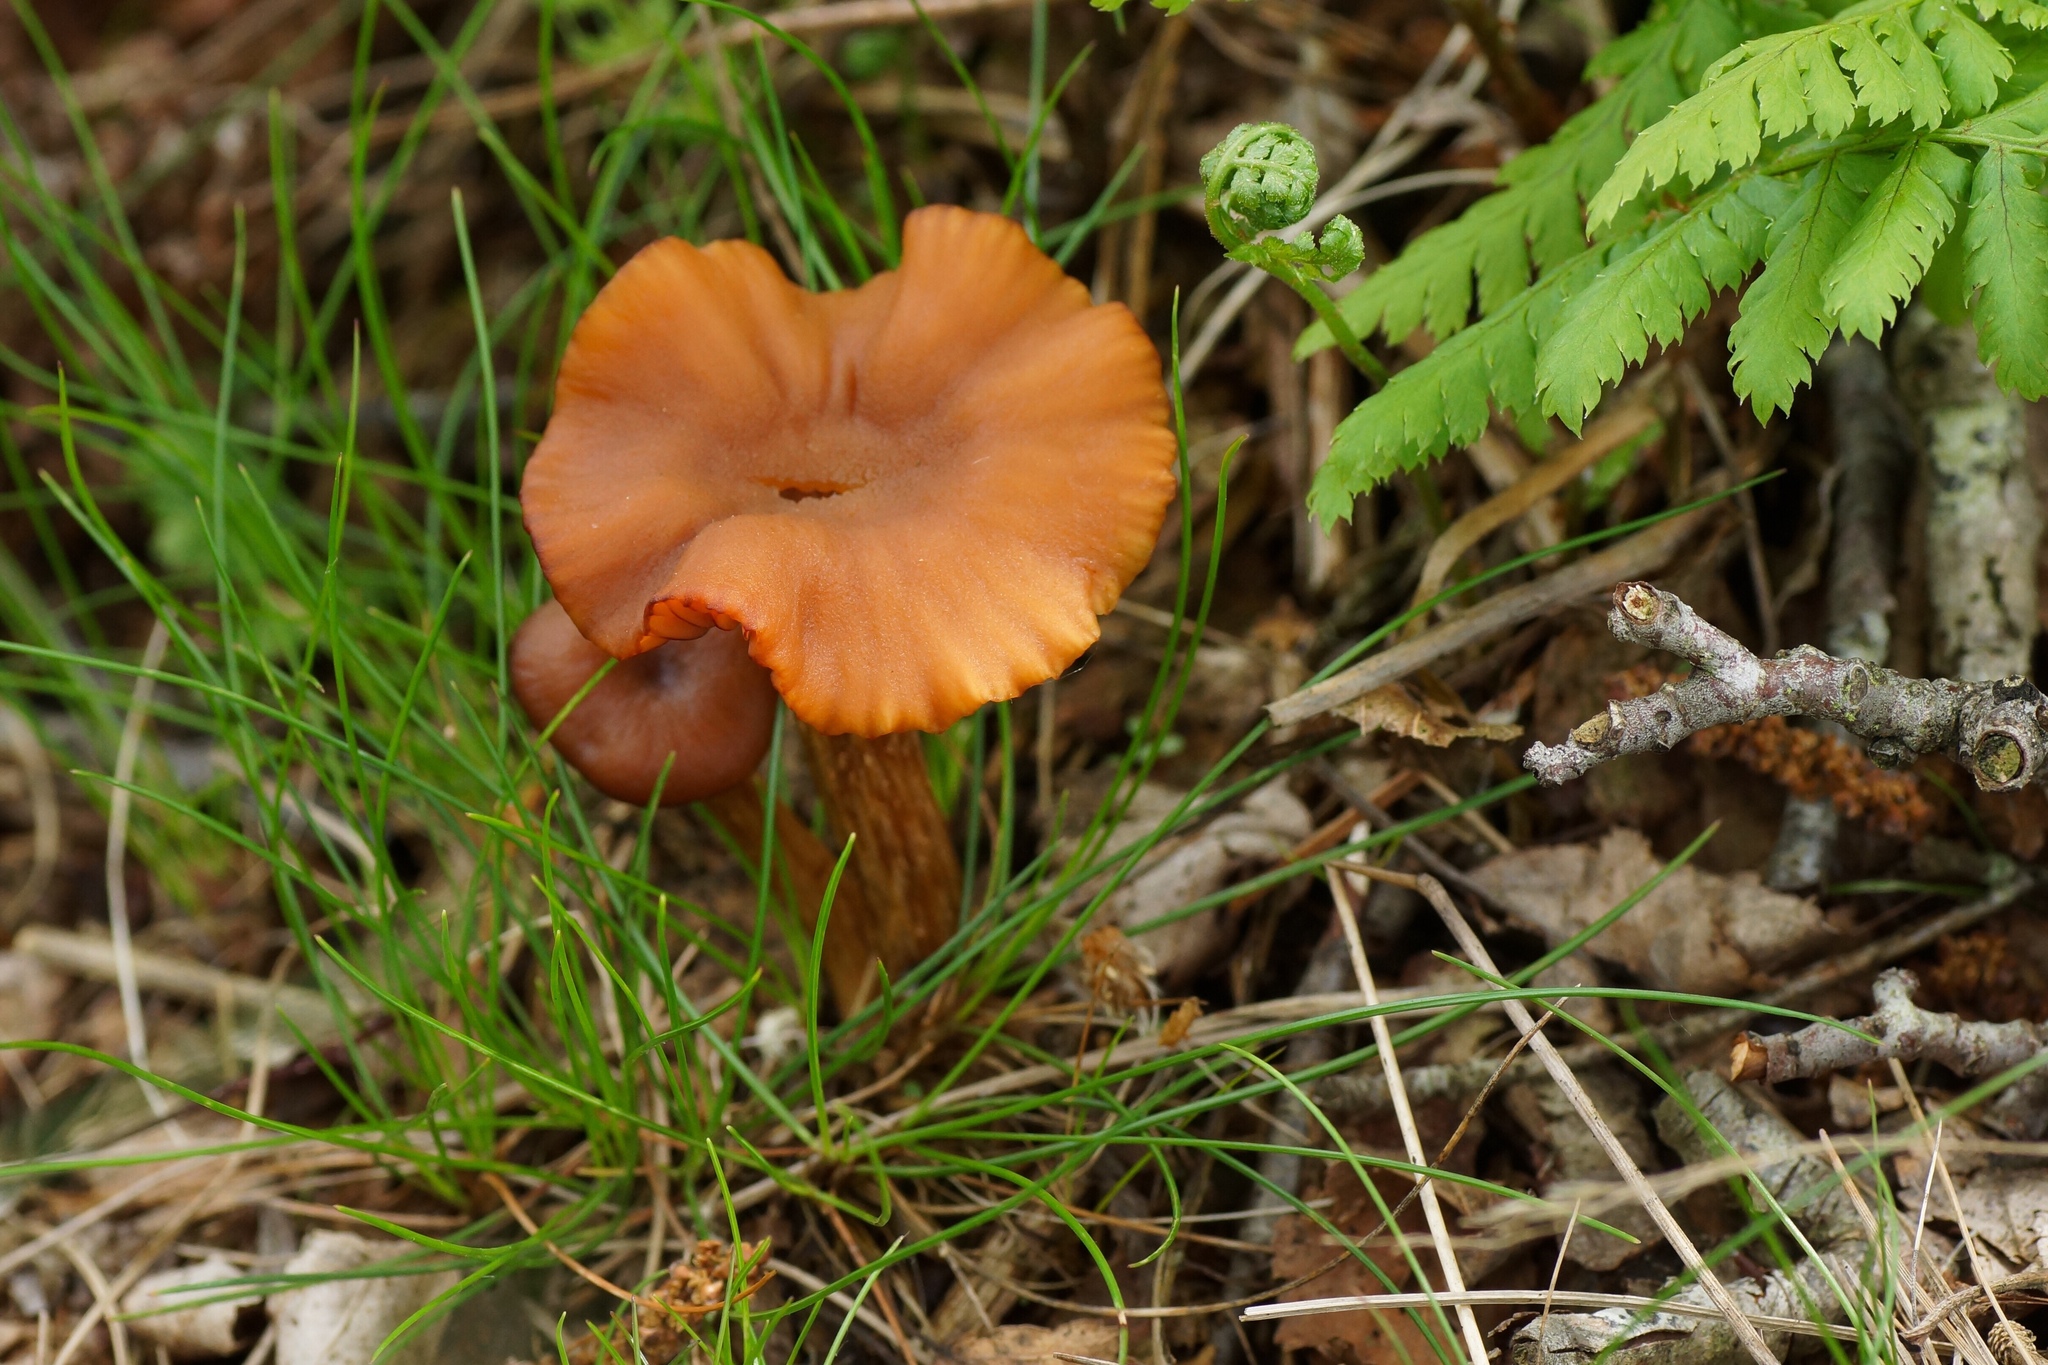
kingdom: Fungi
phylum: Basidiomycota
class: Agaricomycetes
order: Agaricales
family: Hydnangiaceae
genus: Laccaria
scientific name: Laccaria laccata
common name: Deceiver
